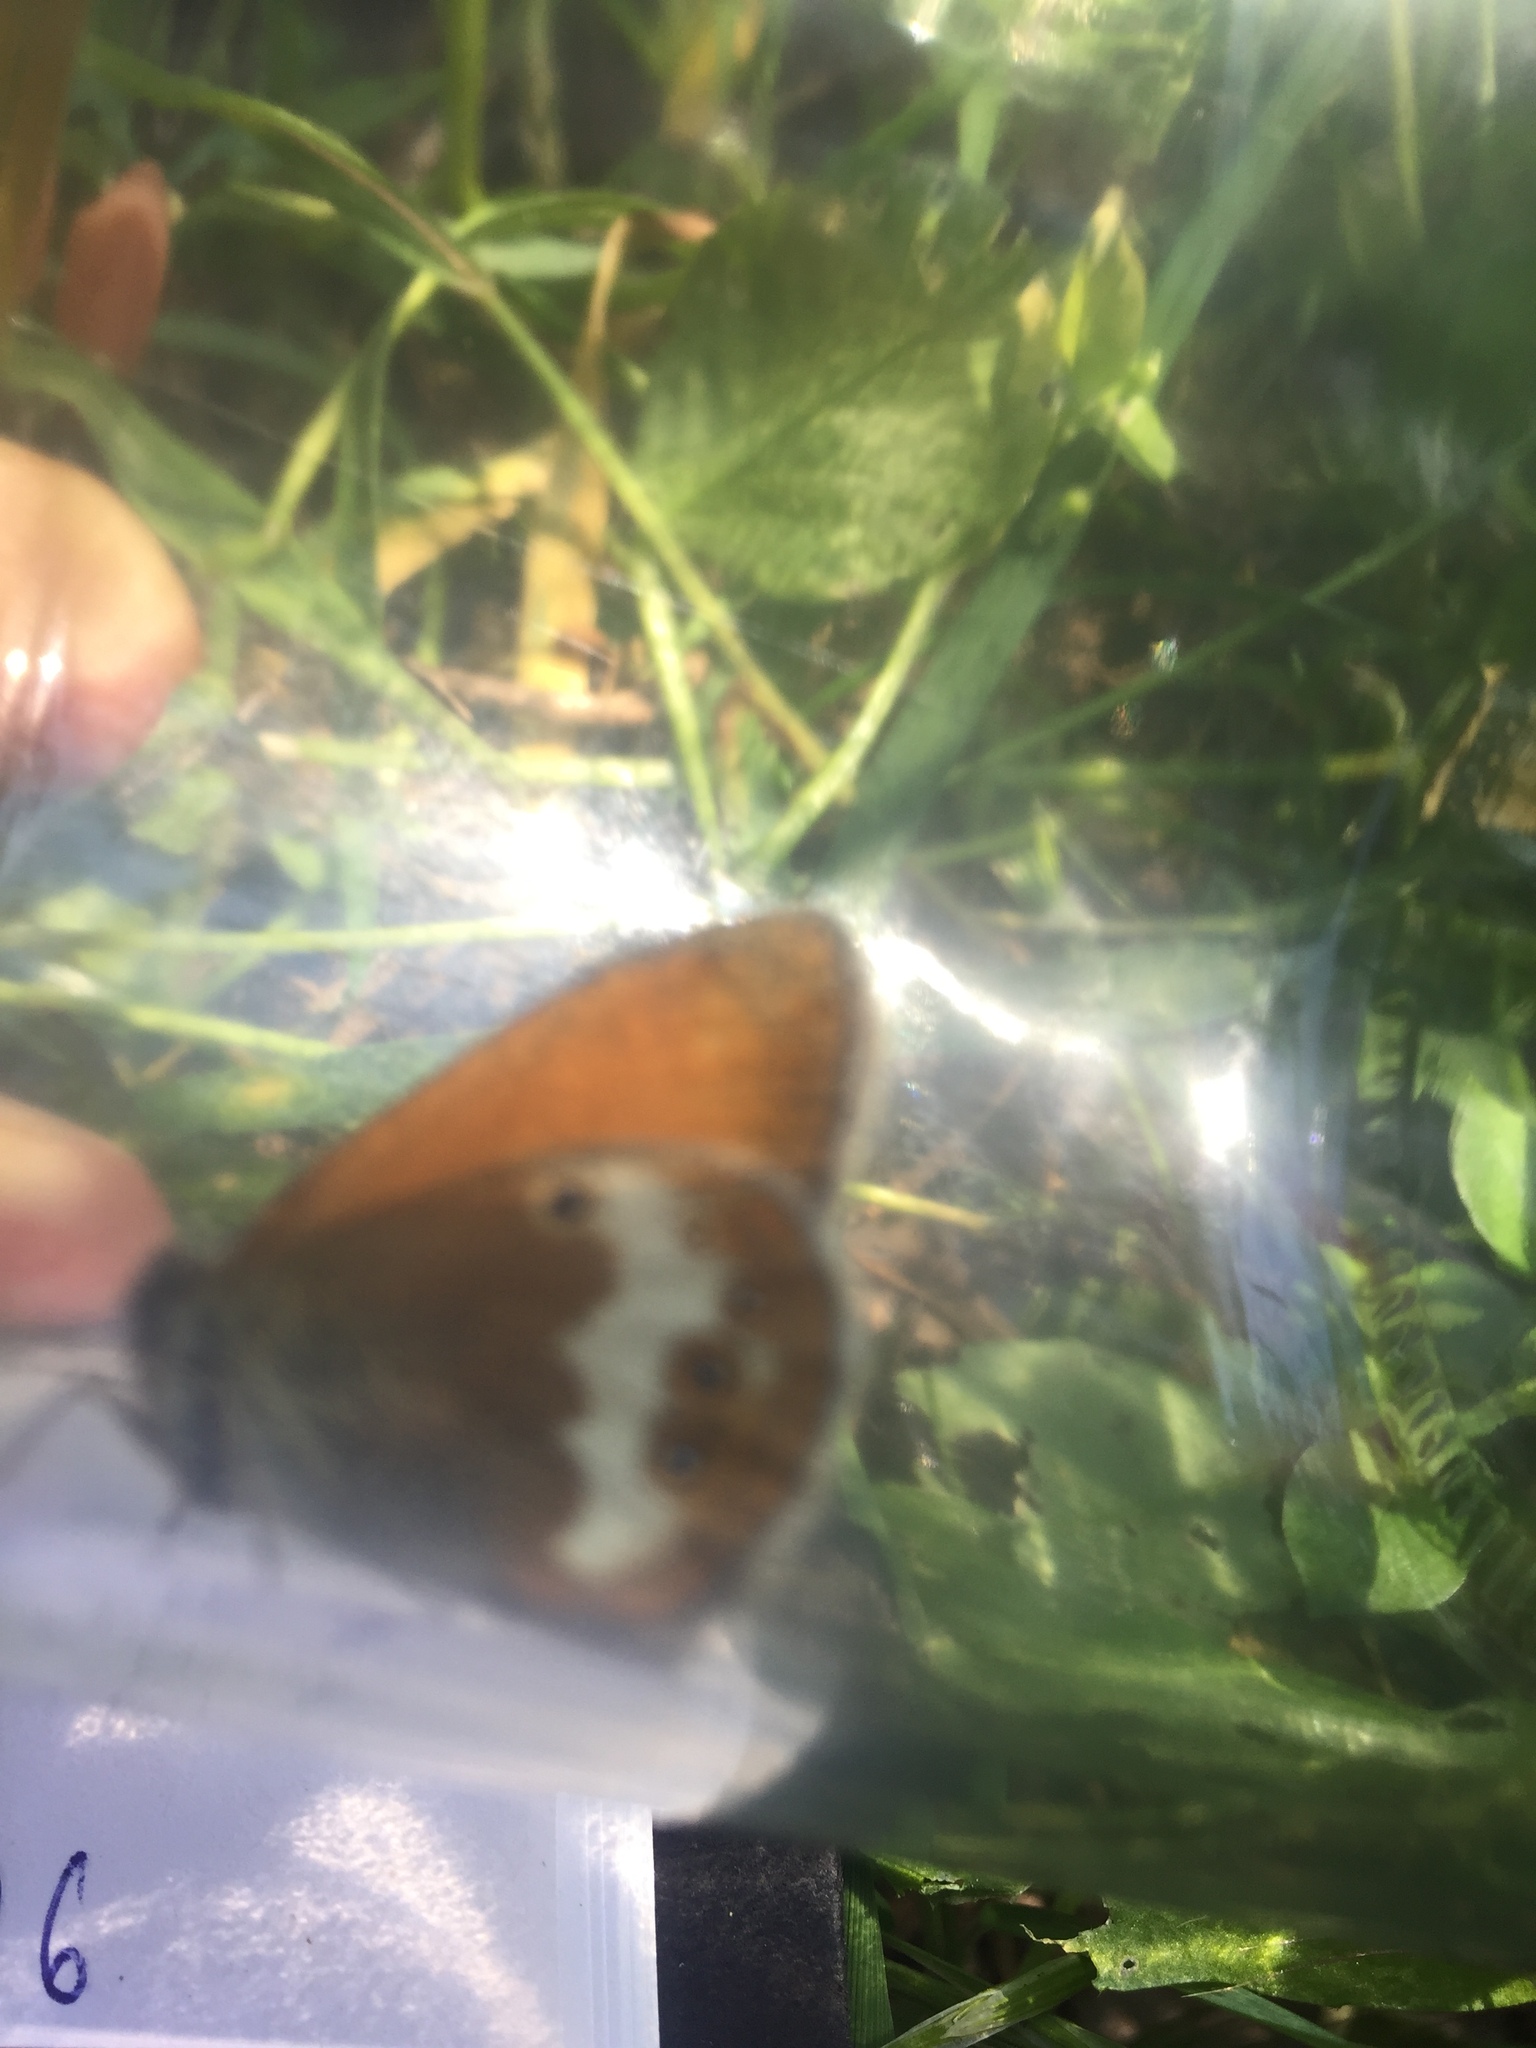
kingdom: Animalia
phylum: Arthropoda
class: Insecta
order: Lepidoptera
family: Nymphalidae
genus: Coenonympha
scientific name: Coenonympha arcania
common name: Pearly heath
